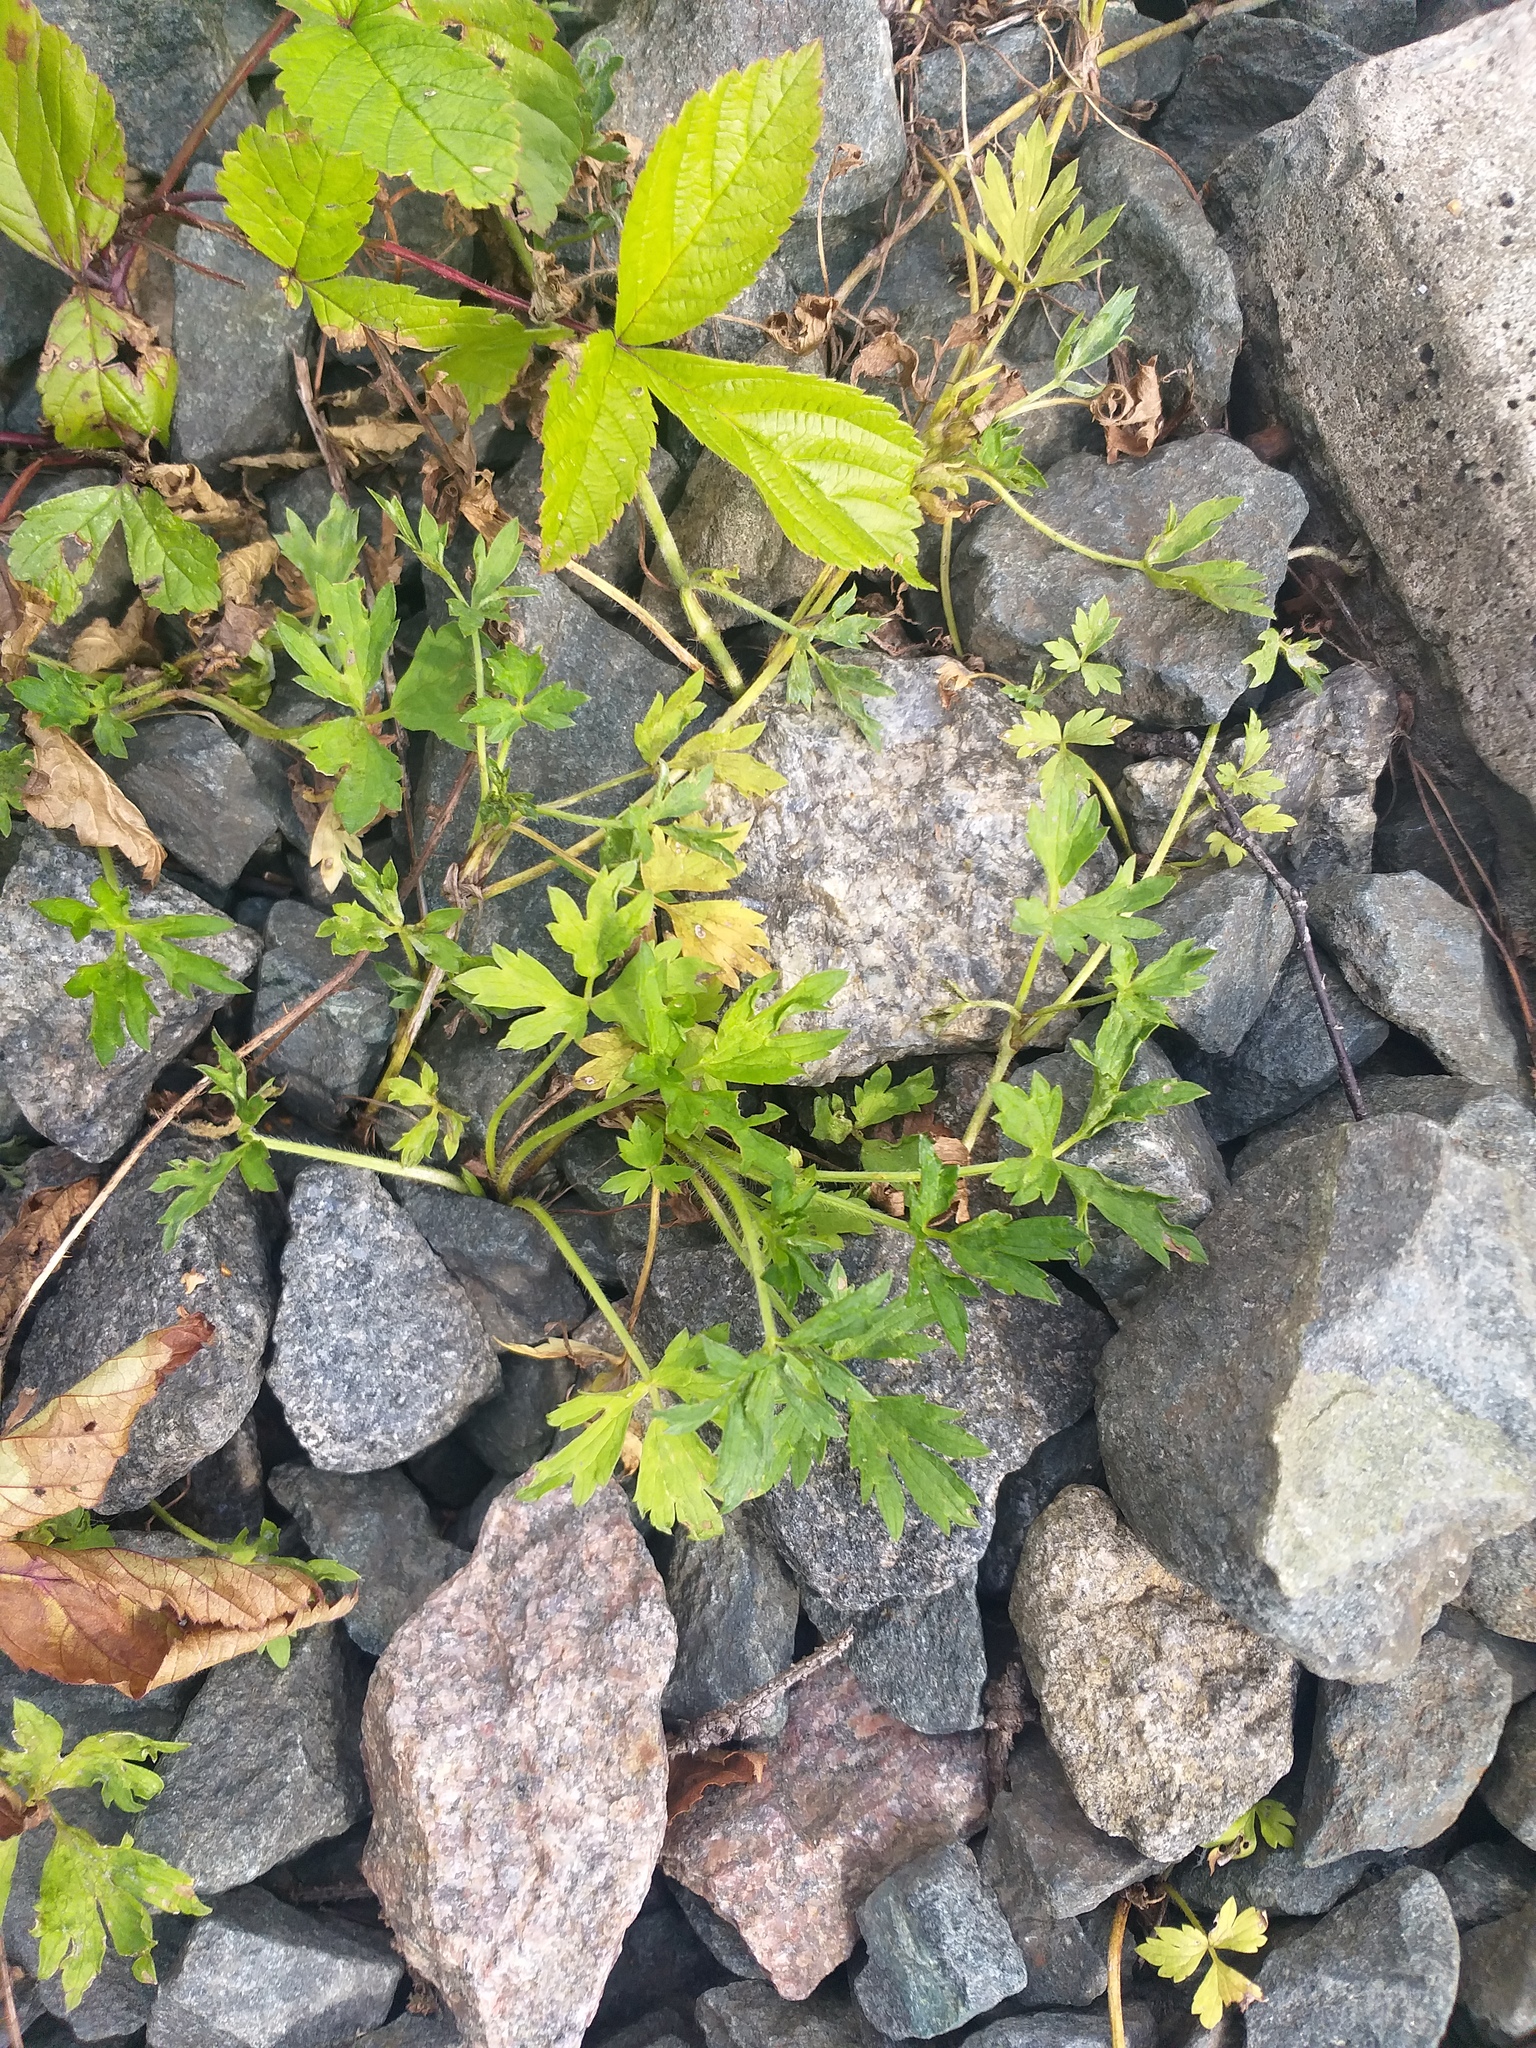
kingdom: Plantae
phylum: Tracheophyta
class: Magnoliopsida
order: Ranunculales
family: Ranunculaceae
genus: Ranunculus
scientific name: Ranunculus repens
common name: Creeping buttercup
